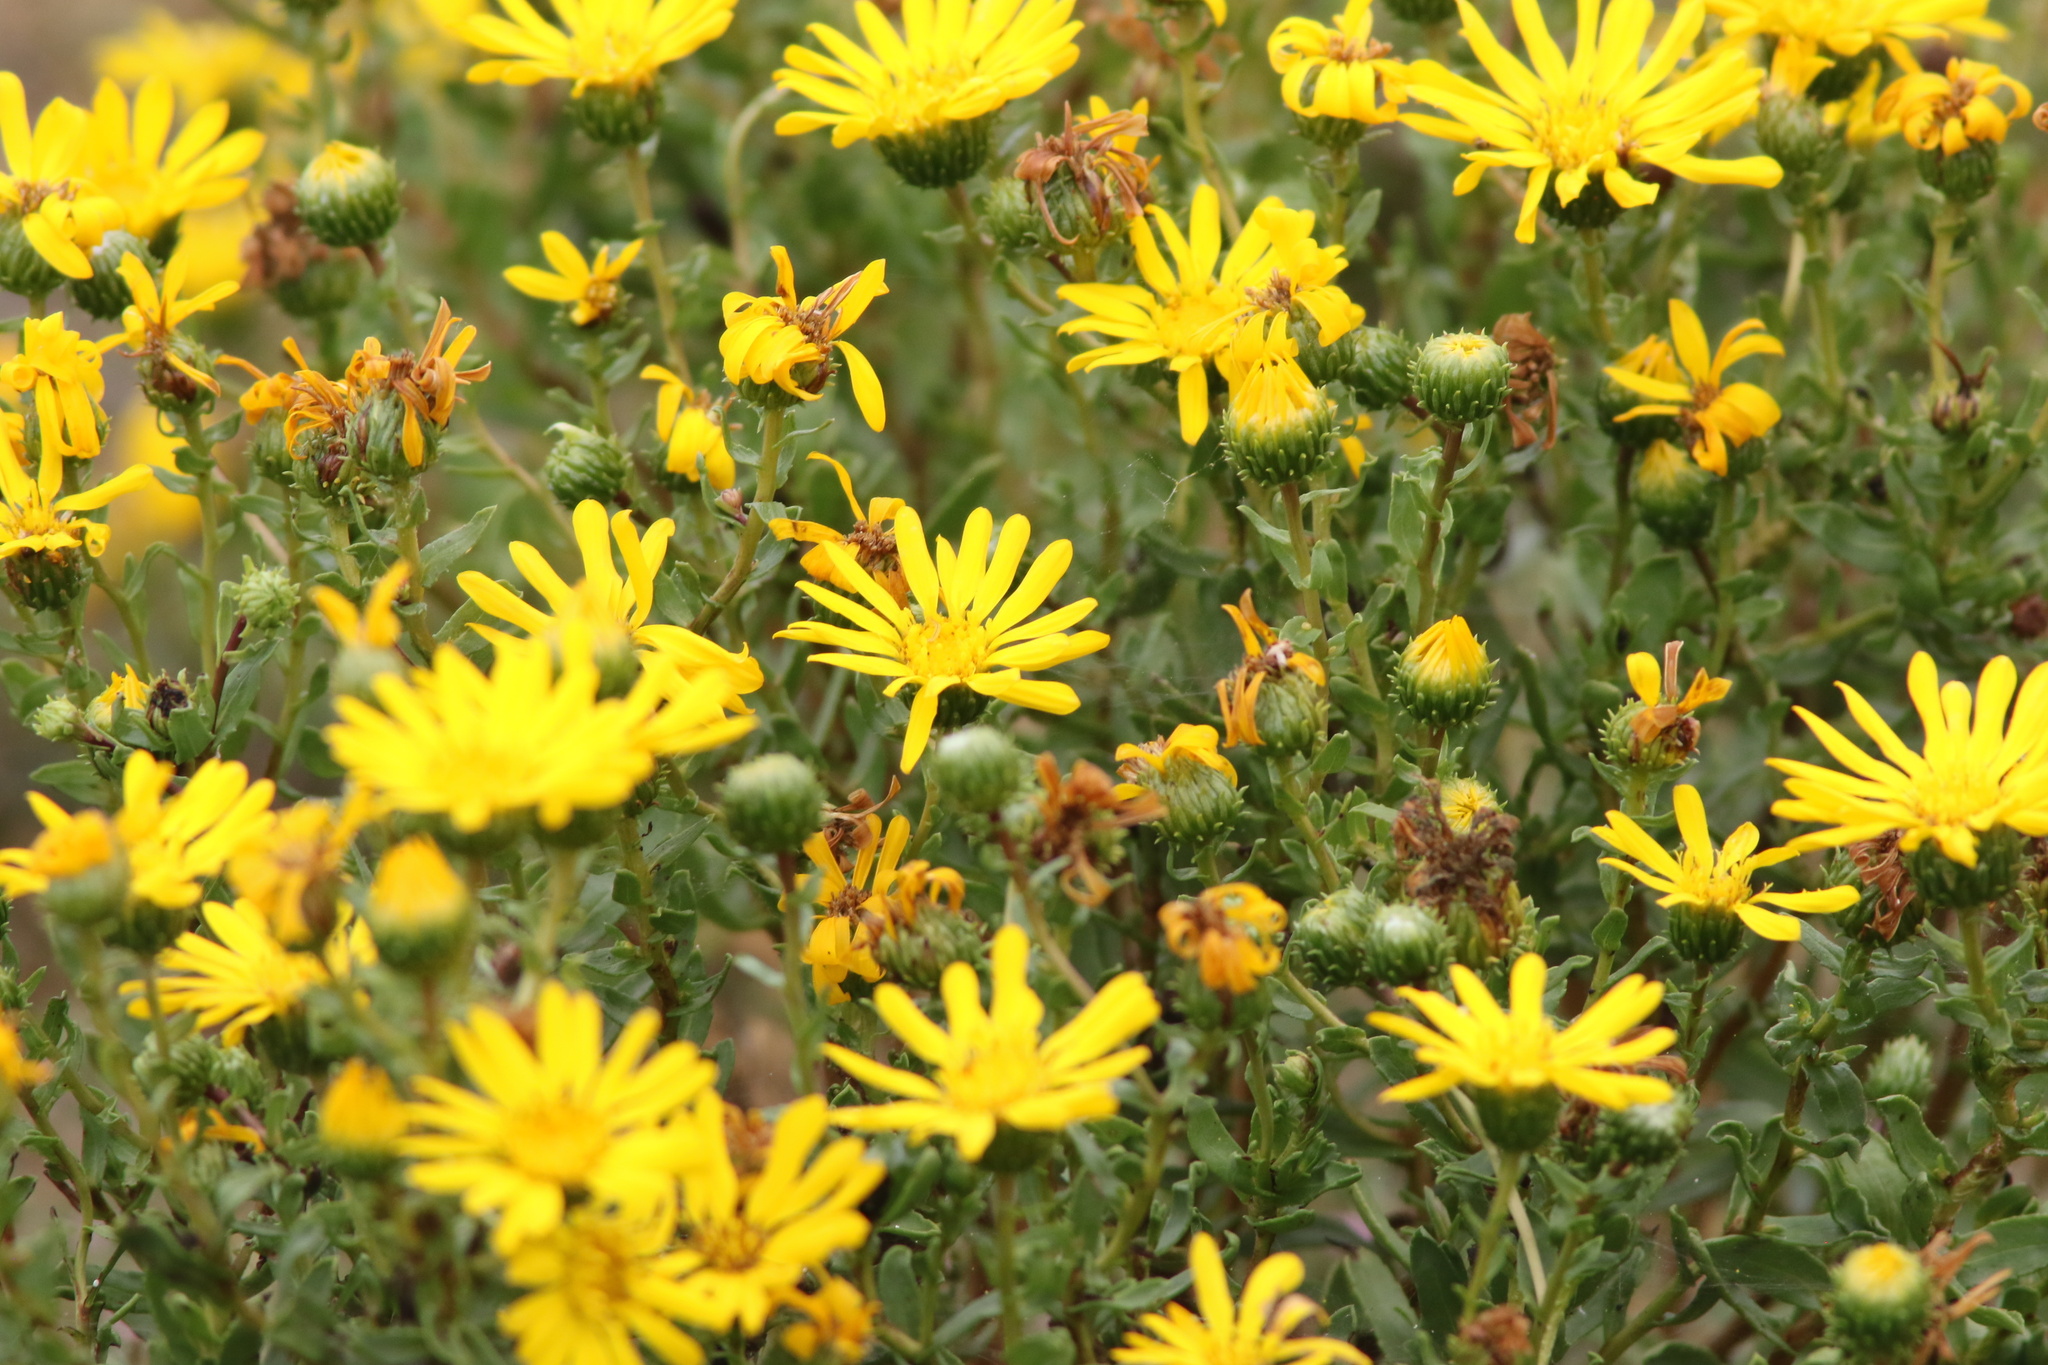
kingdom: Plantae
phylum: Tracheophyta
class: Magnoliopsida
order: Asterales
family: Asteraceae
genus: Grindelia
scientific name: Grindelia hirsutula
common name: Hairy gumweed
